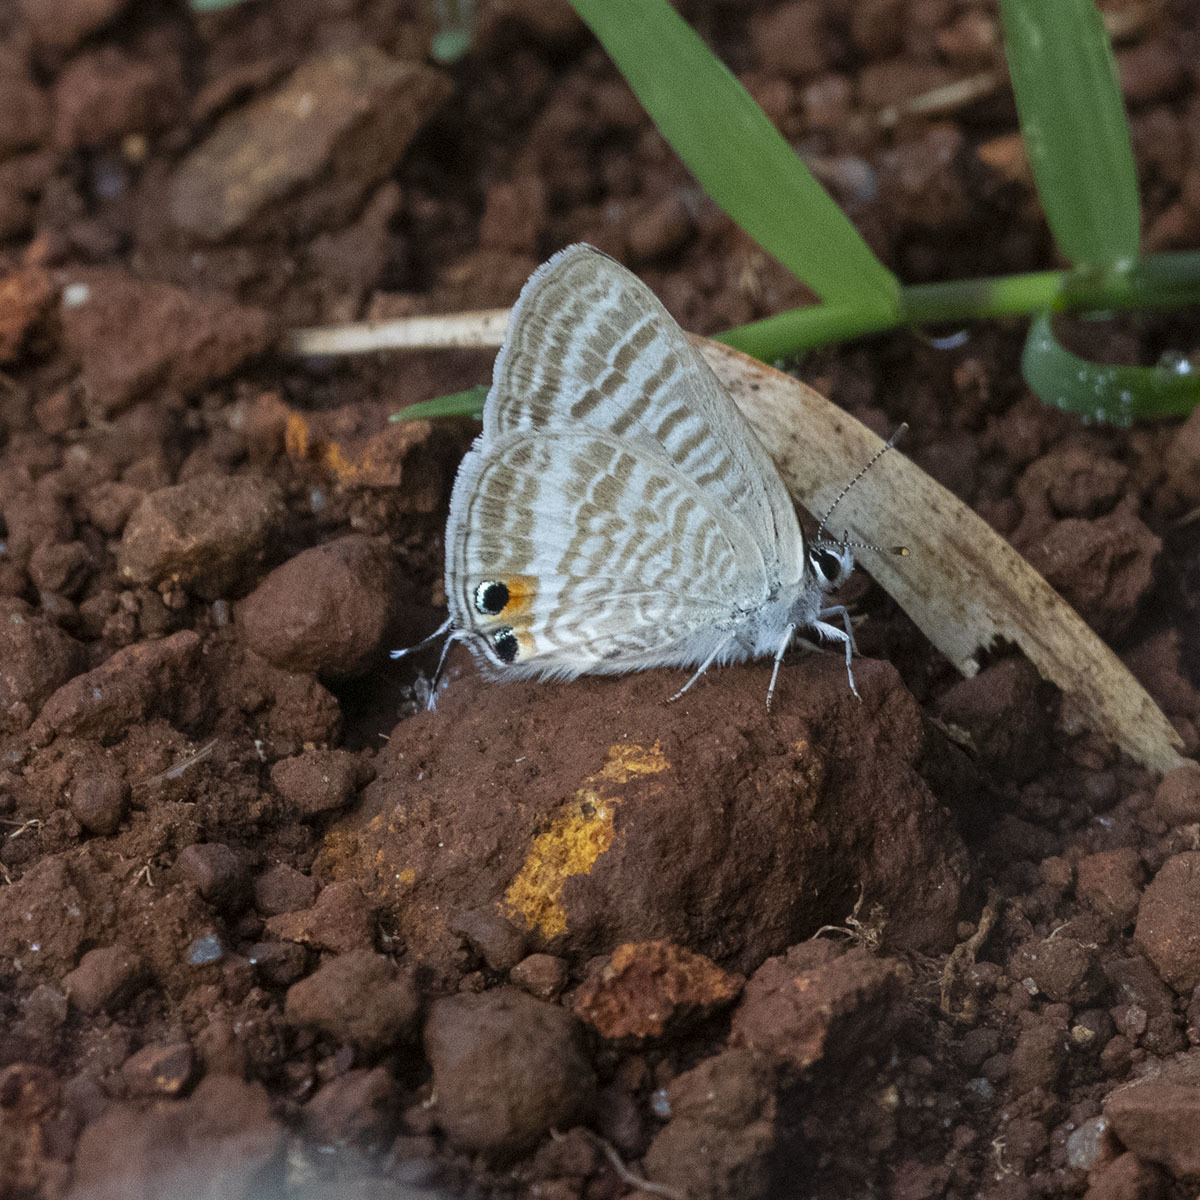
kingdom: Animalia
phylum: Arthropoda
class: Insecta
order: Lepidoptera
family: Lycaenidae
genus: Lampides
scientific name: Lampides boeticus
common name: Long-tailed blue
